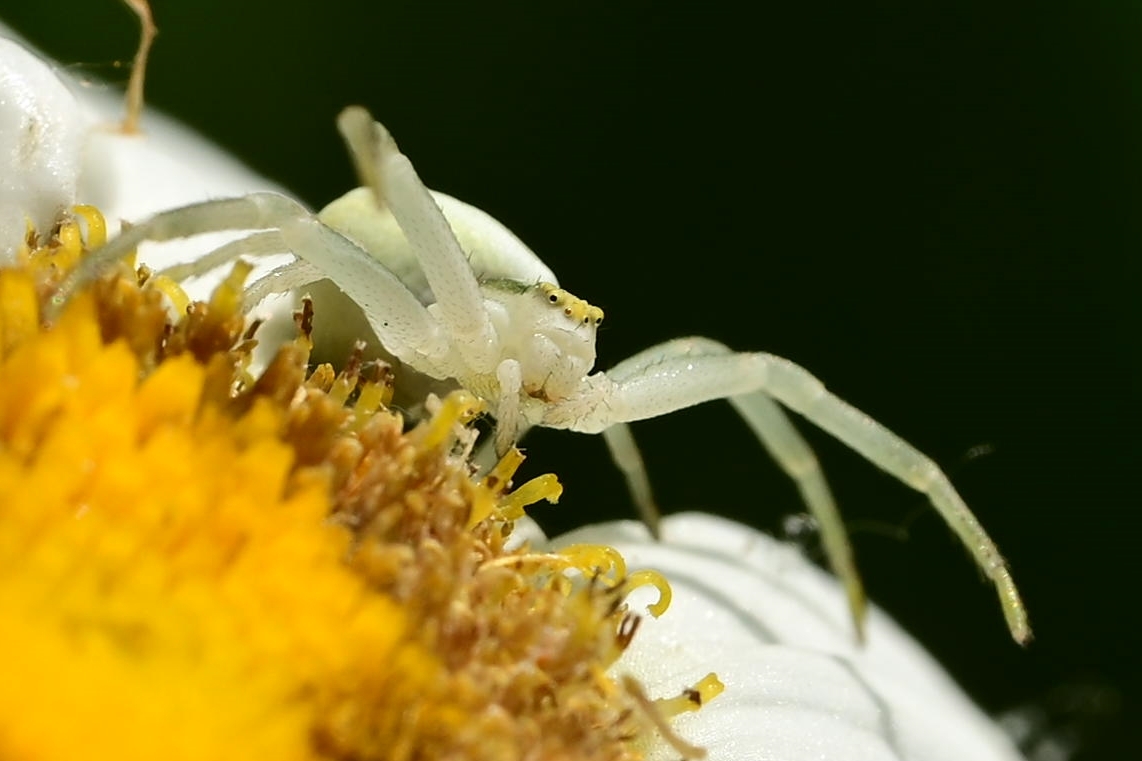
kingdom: Animalia
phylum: Arthropoda
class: Arachnida
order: Araneae
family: Thomisidae
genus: Misumena
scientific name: Misumena vatia
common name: Goldenrod crab spider
